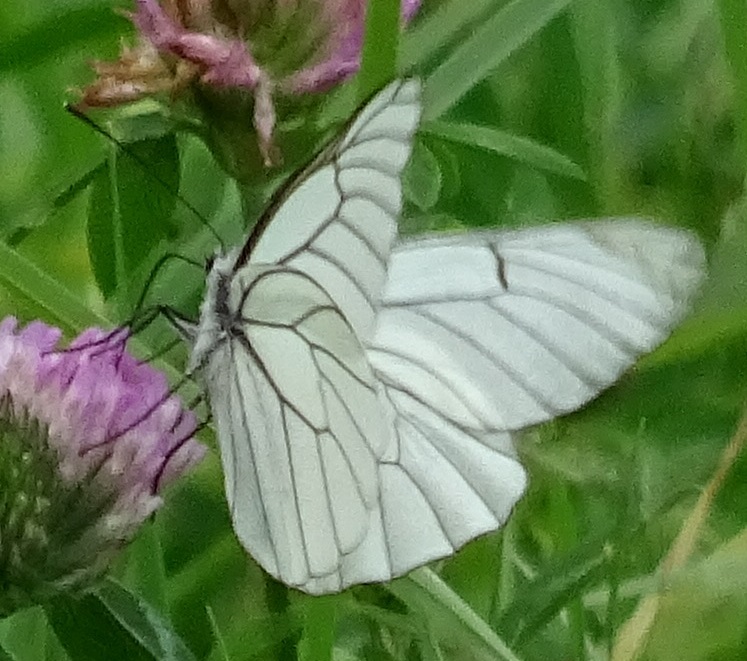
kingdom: Animalia
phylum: Arthropoda
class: Insecta
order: Lepidoptera
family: Pieridae
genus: Aporia
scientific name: Aporia crataegi
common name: Black-veined white
